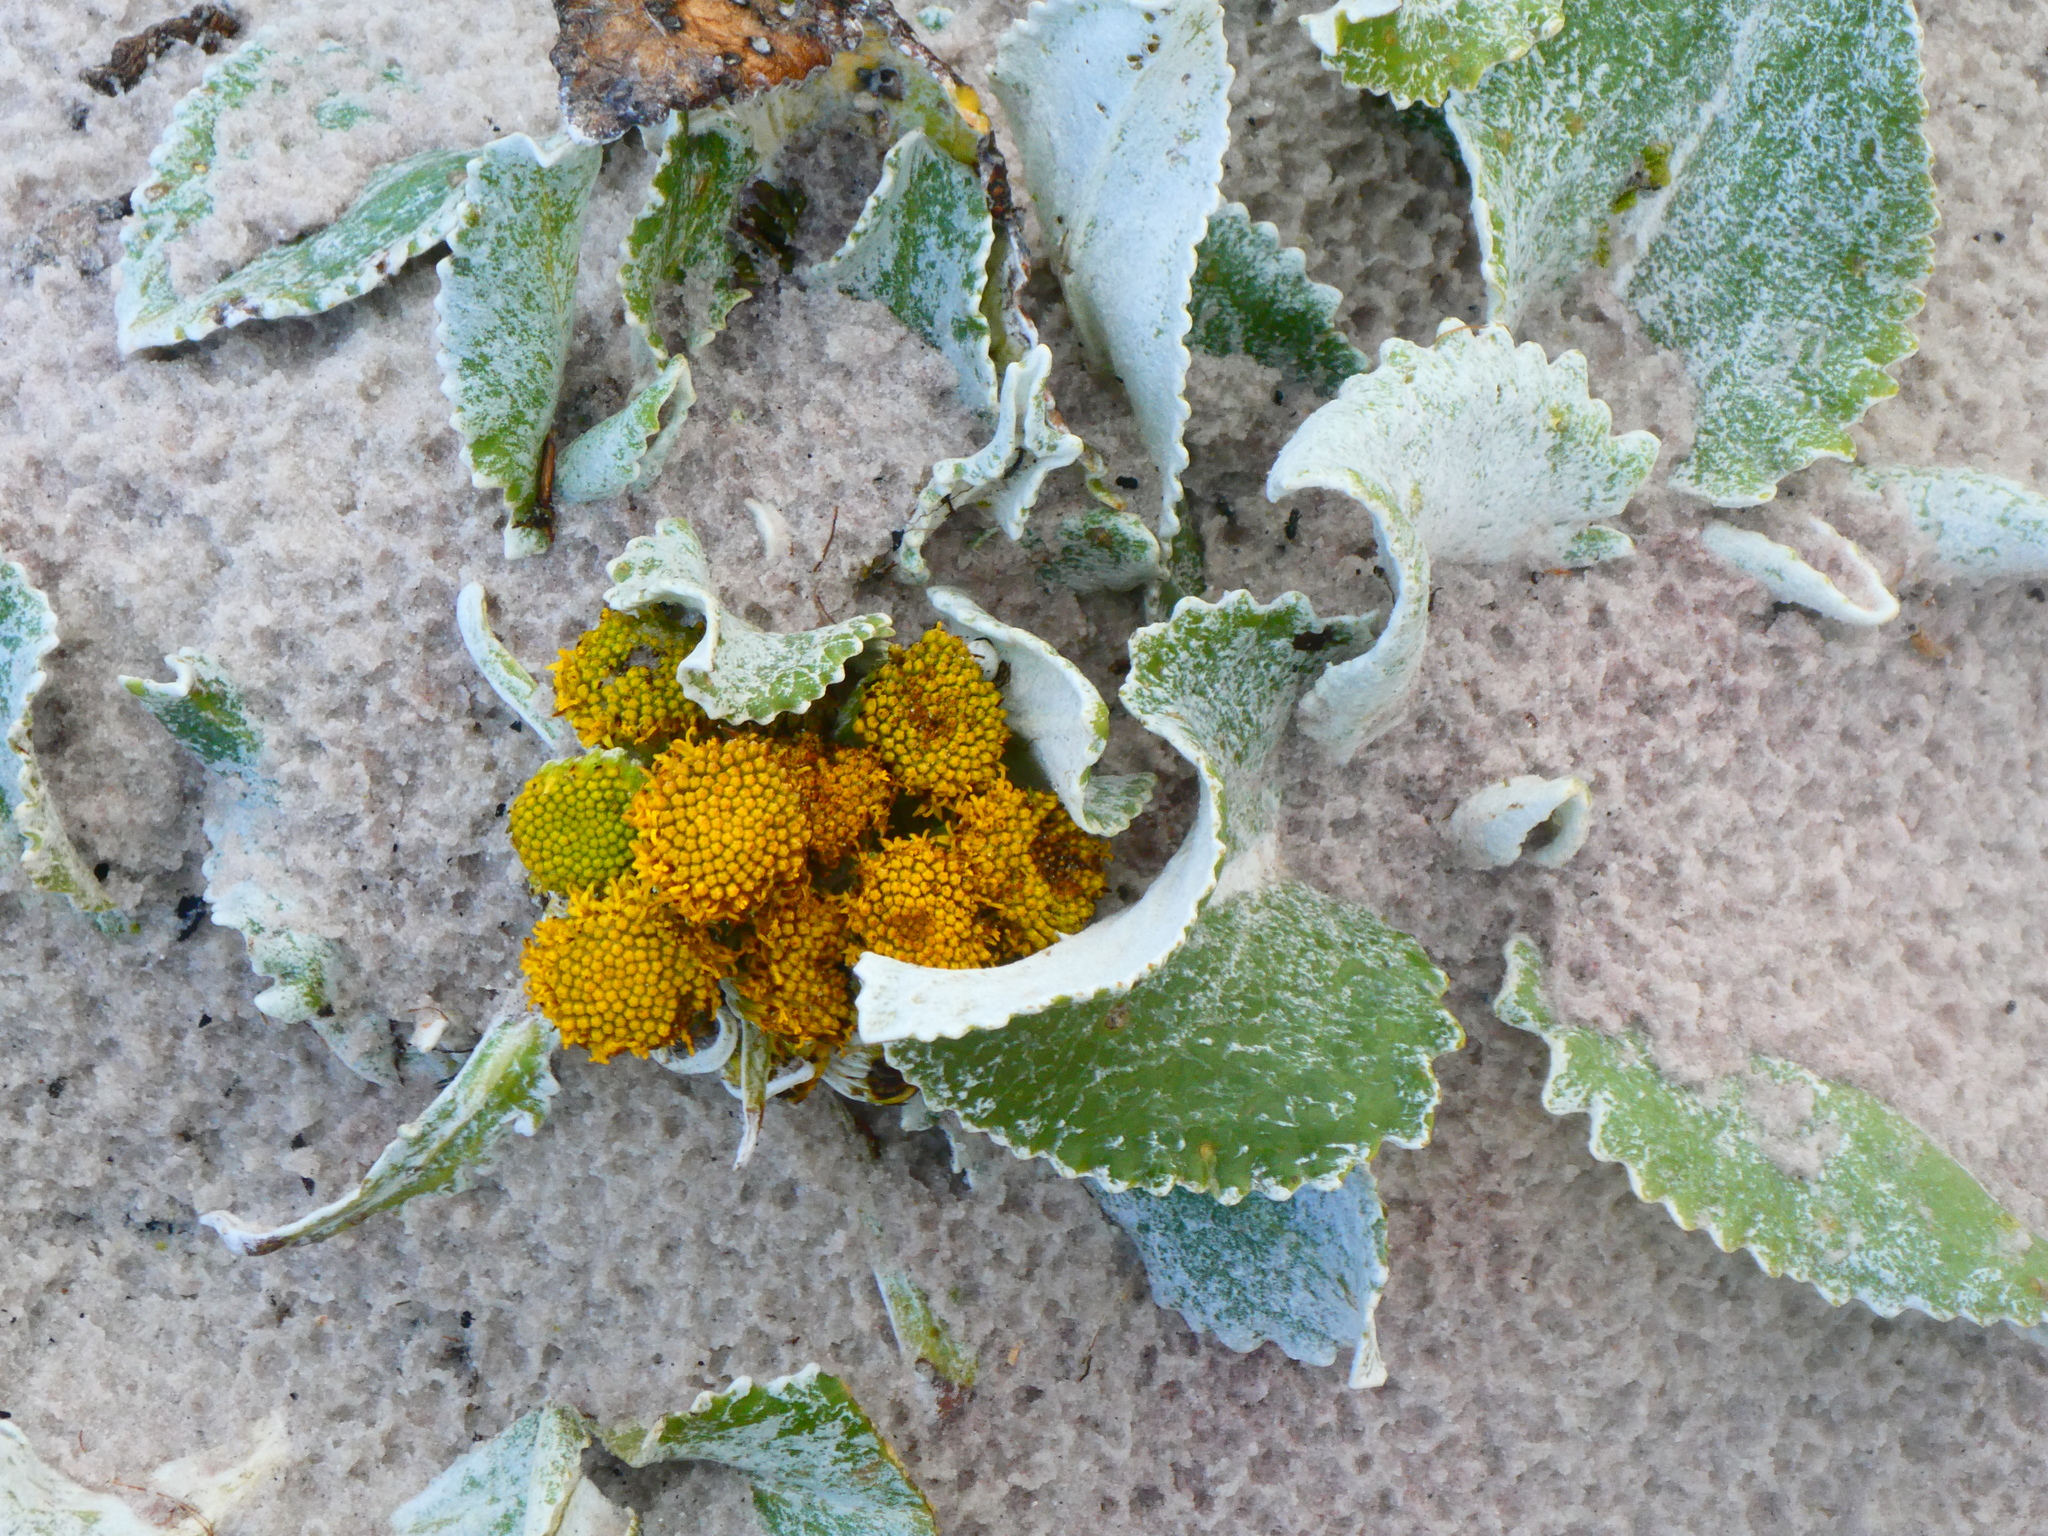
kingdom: Plantae
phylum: Tracheophyta
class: Magnoliopsida
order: Asterales
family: Asteraceae
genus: Senecio
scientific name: Senecio candidans
